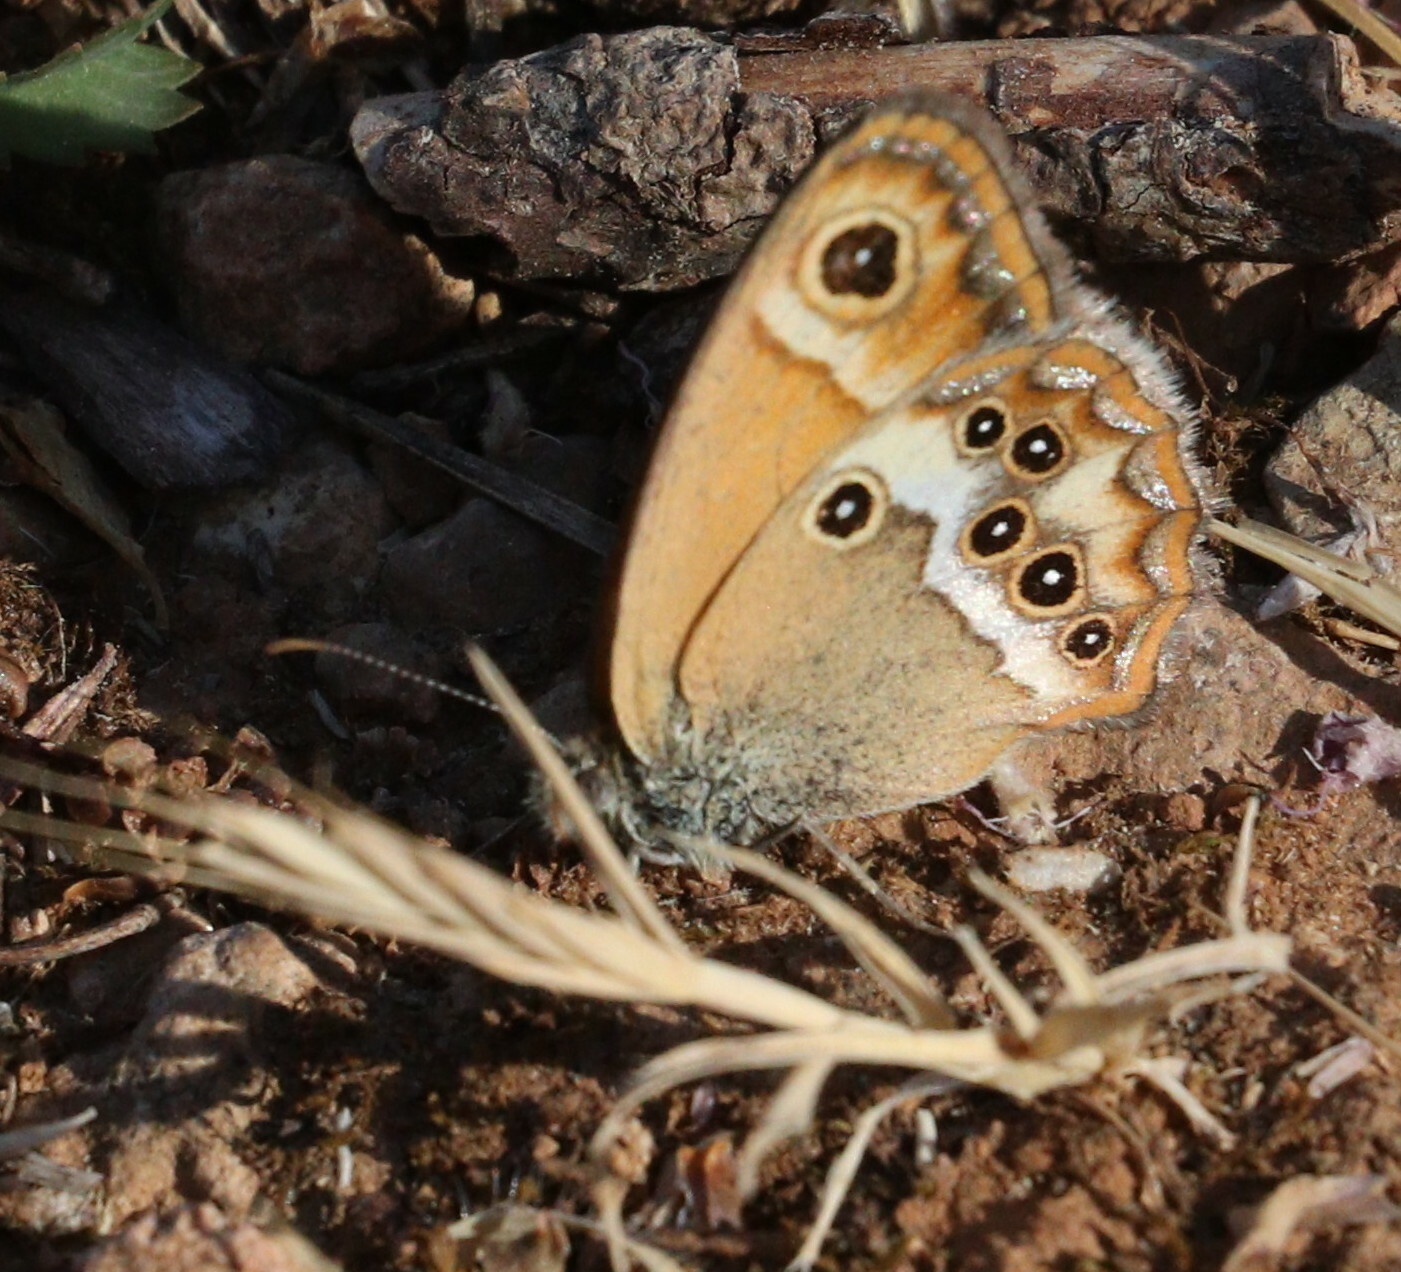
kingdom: Animalia
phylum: Arthropoda
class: Insecta
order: Lepidoptera
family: Nymphalidae
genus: Coenonympha
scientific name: Coenonympha dorus
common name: Dusky heath
